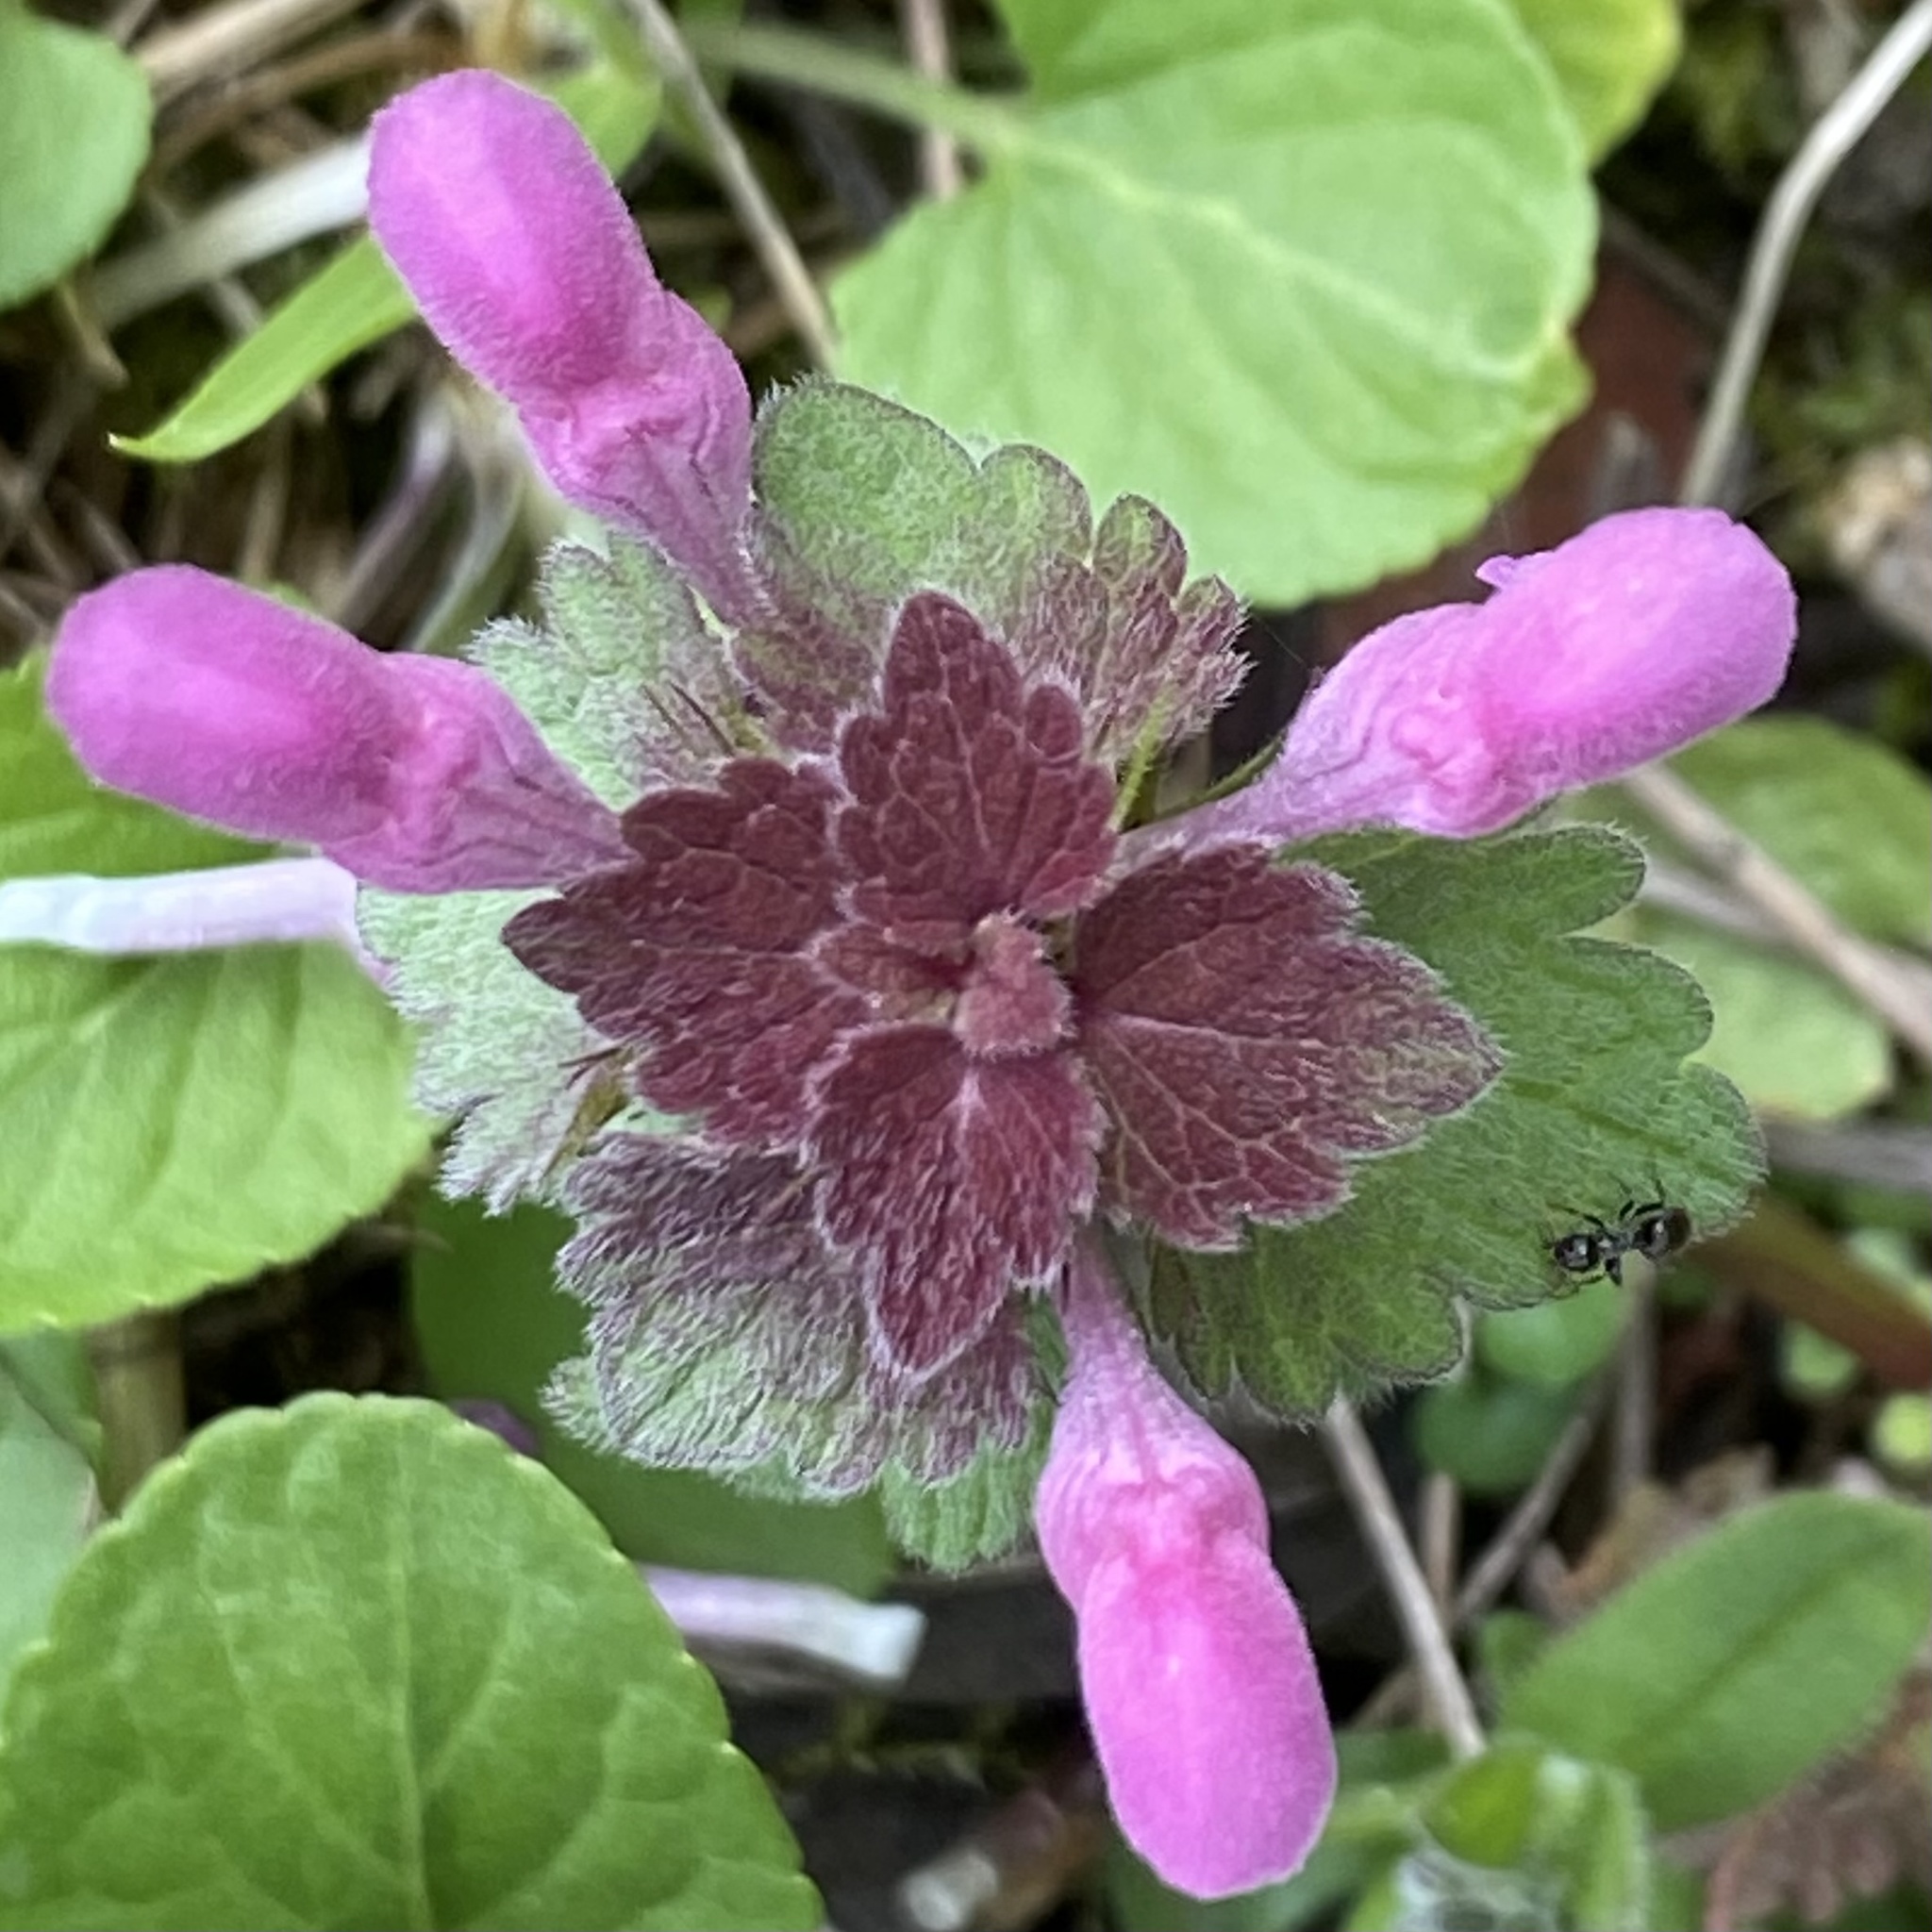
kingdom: Plantae
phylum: Tracheophyta
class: Magnoliopsida
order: Lamiales
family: Lamiaceae
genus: Lamium
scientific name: Lamium purpureum
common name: Red dead-nettle
